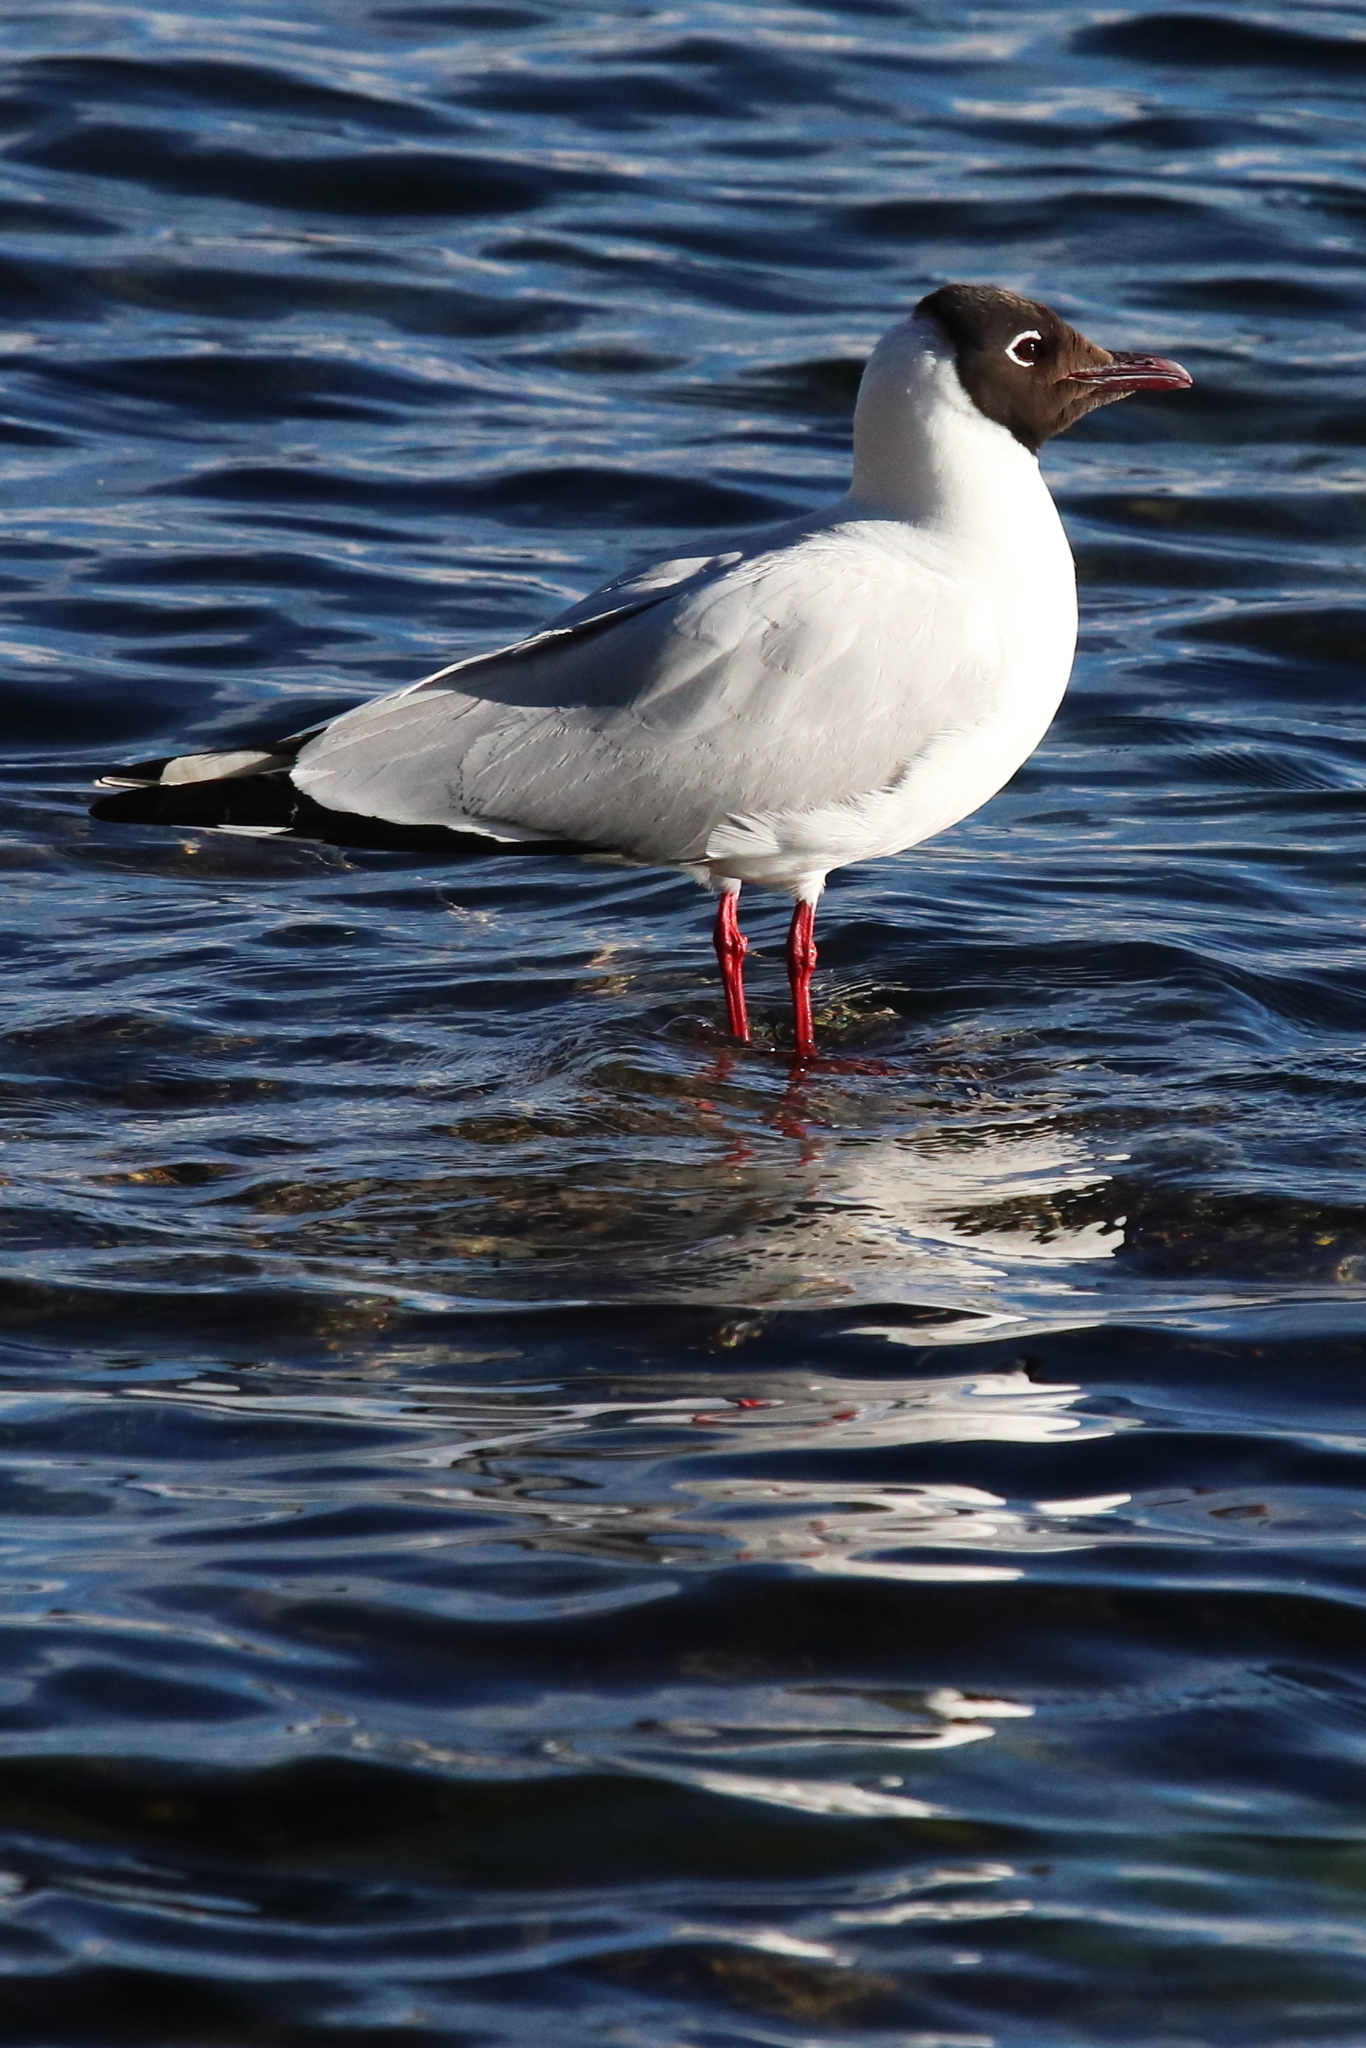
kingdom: Animalia
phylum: Chordata
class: Aves
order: Charadriiformes
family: Laridae
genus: Chroicocephalus
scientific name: Chroicocephalus serranus
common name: Andean gull
